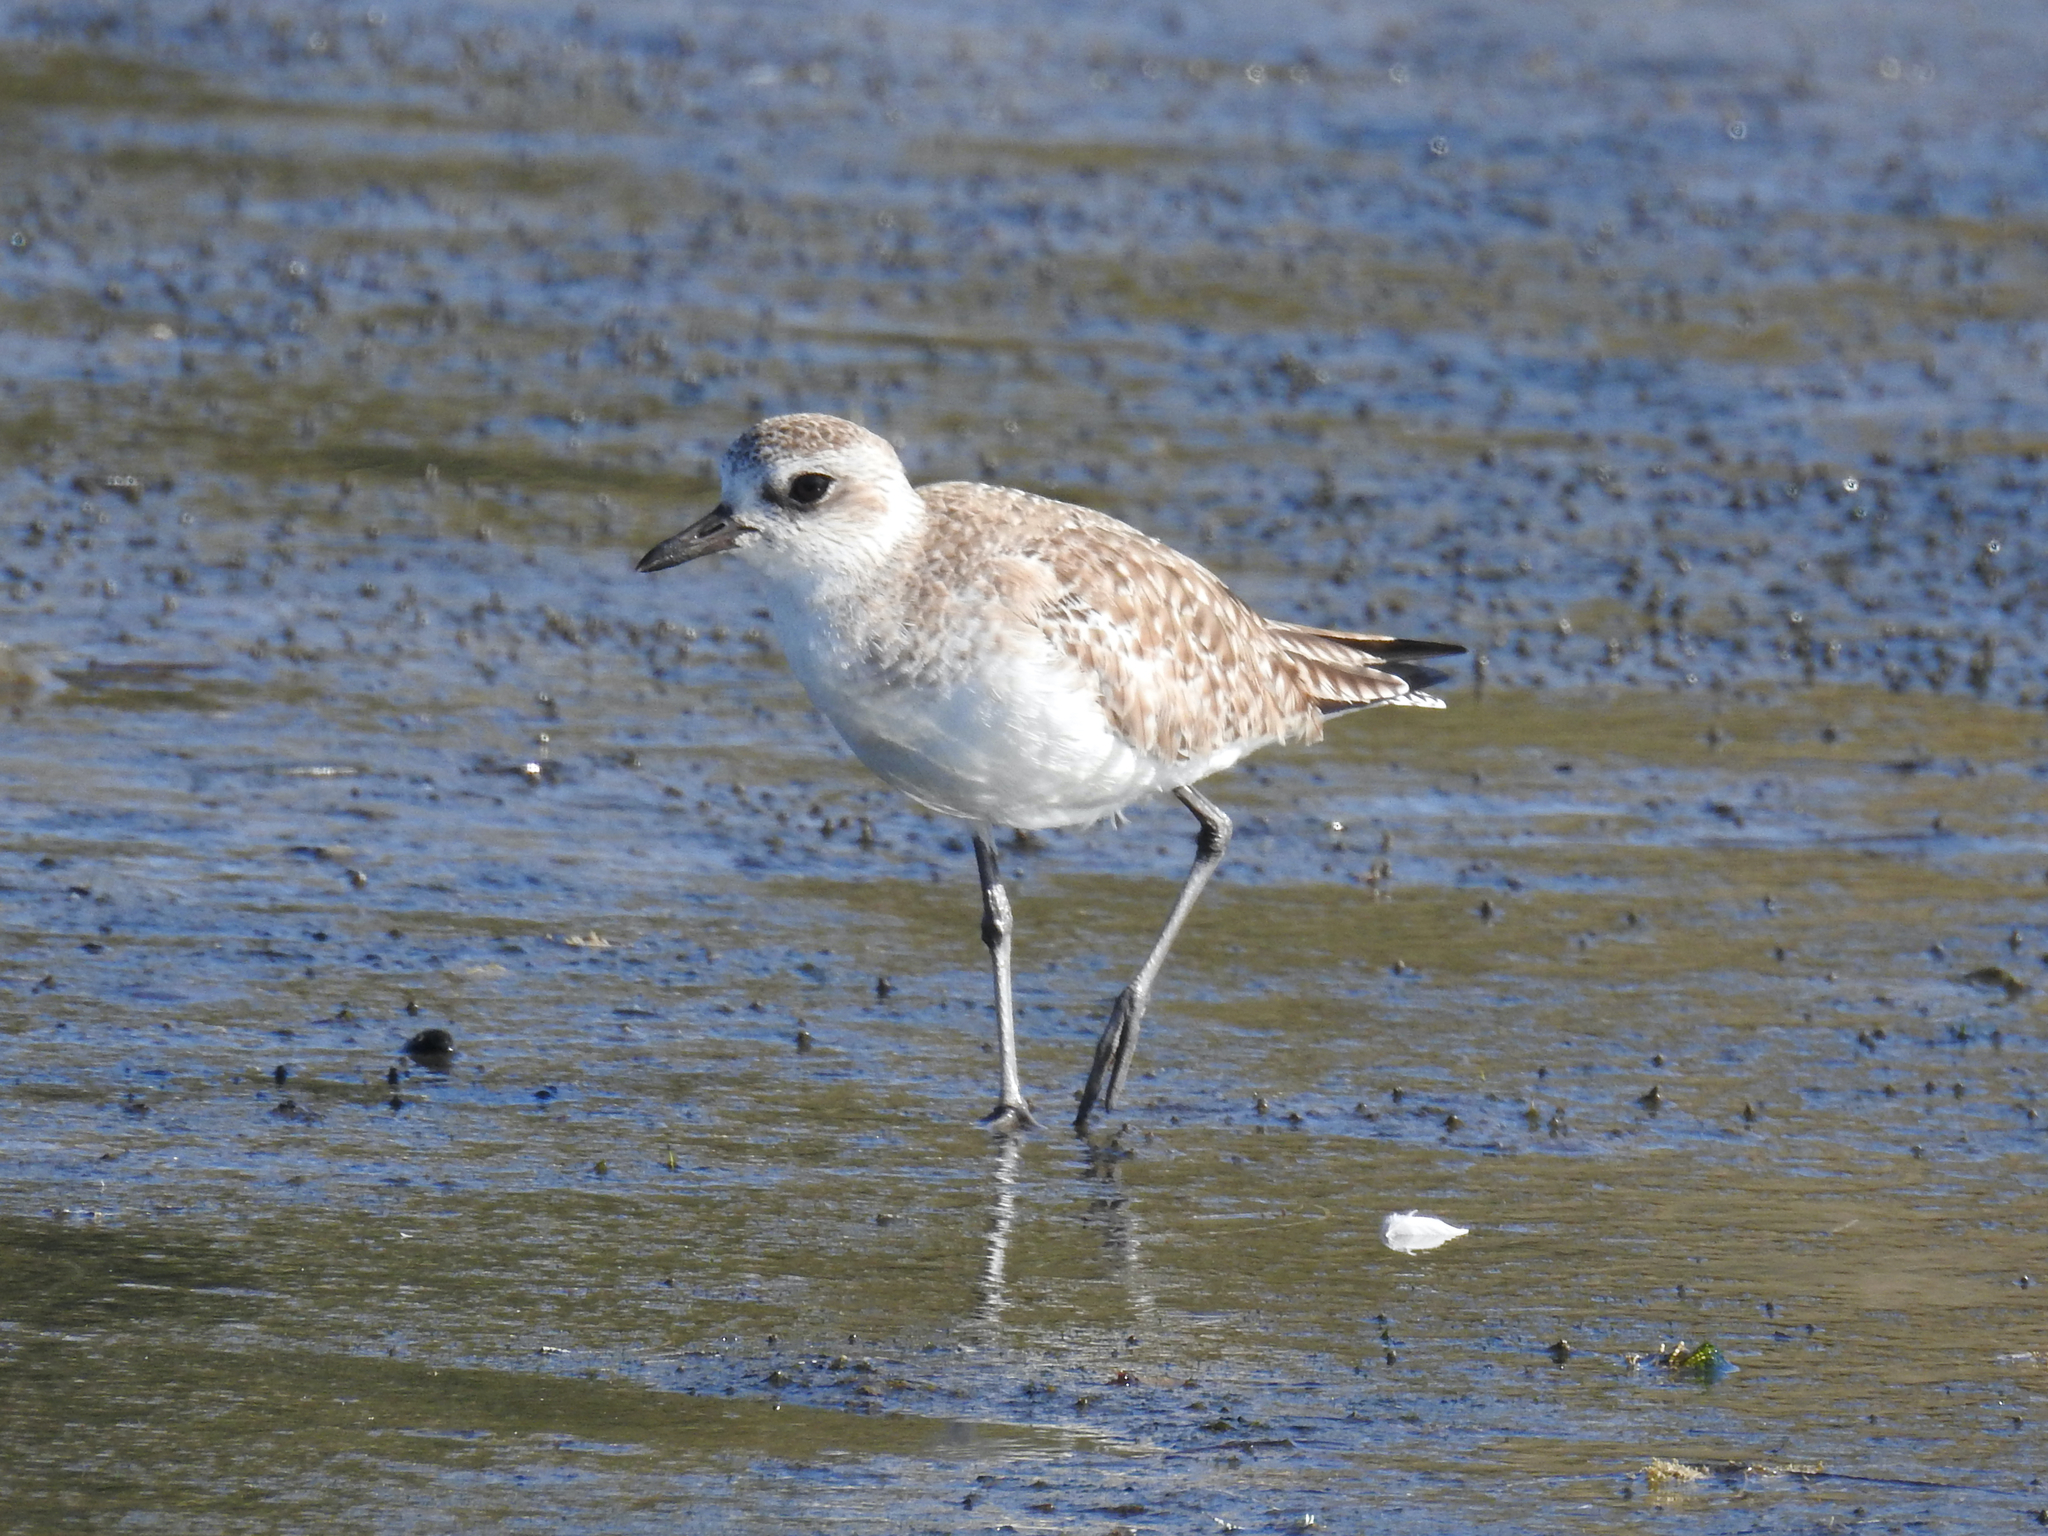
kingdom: Animalia
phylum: Chordata
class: Aves
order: Charadriiformes
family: Charadriidae
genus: Pluvialis
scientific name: Pluvialis squatarola
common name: Grey plover
